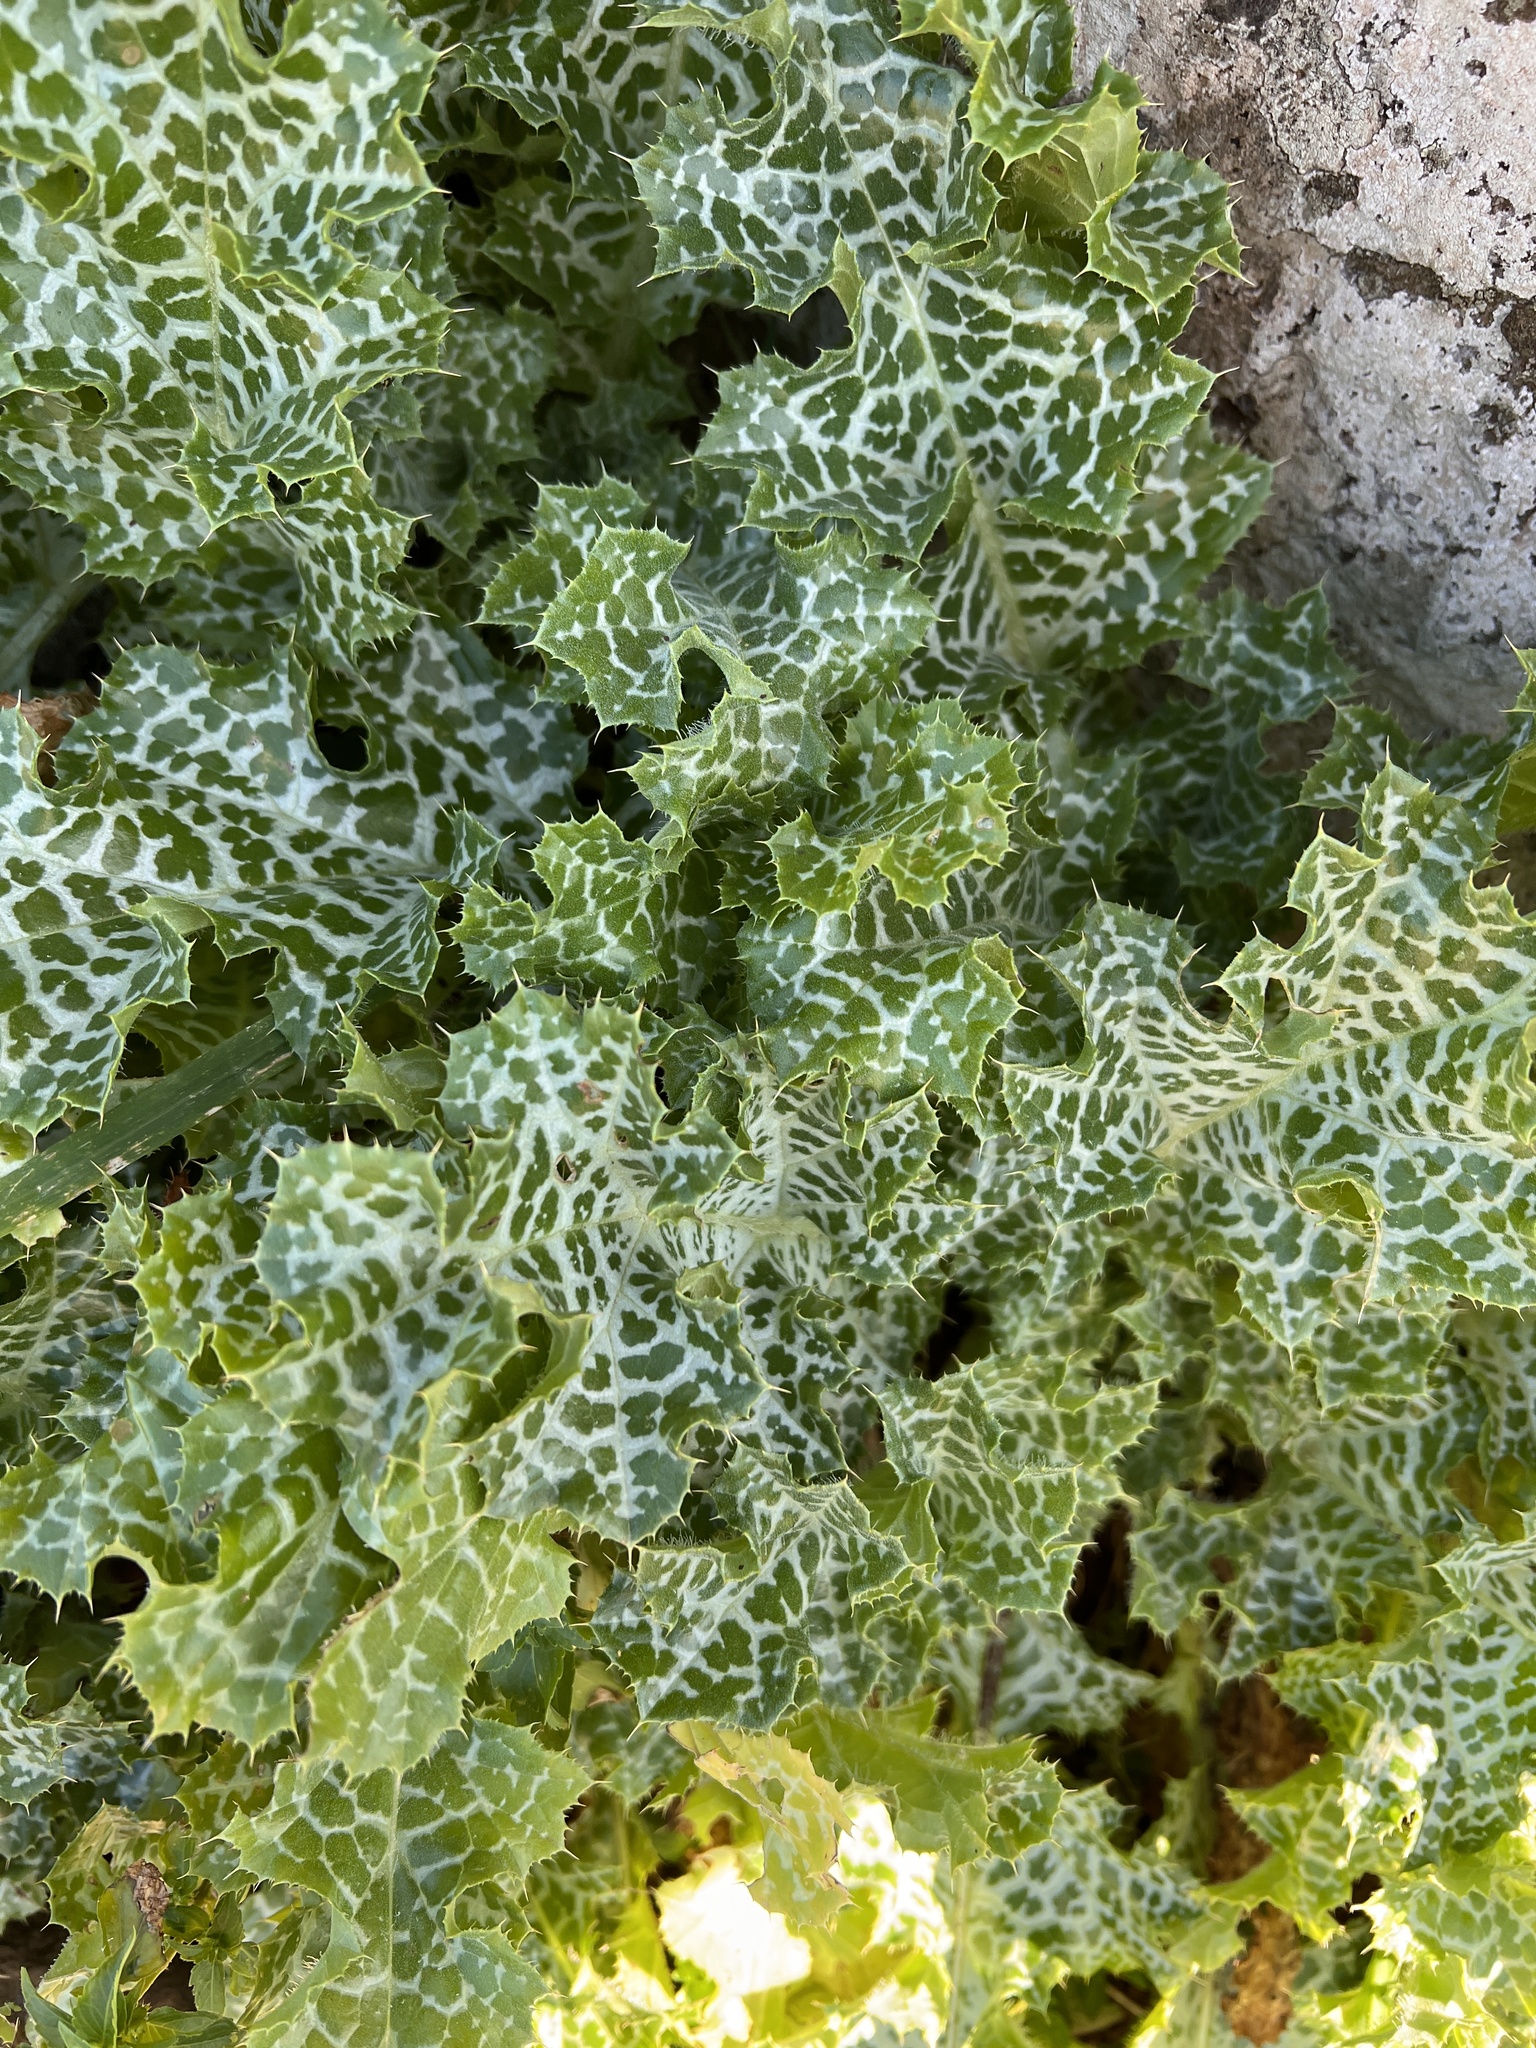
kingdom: Plantae
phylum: Tracheophyta
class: Magnoliopsida
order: Asterales
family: Asteraceae
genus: Silybum
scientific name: Silybum marianum
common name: Milk thistle
